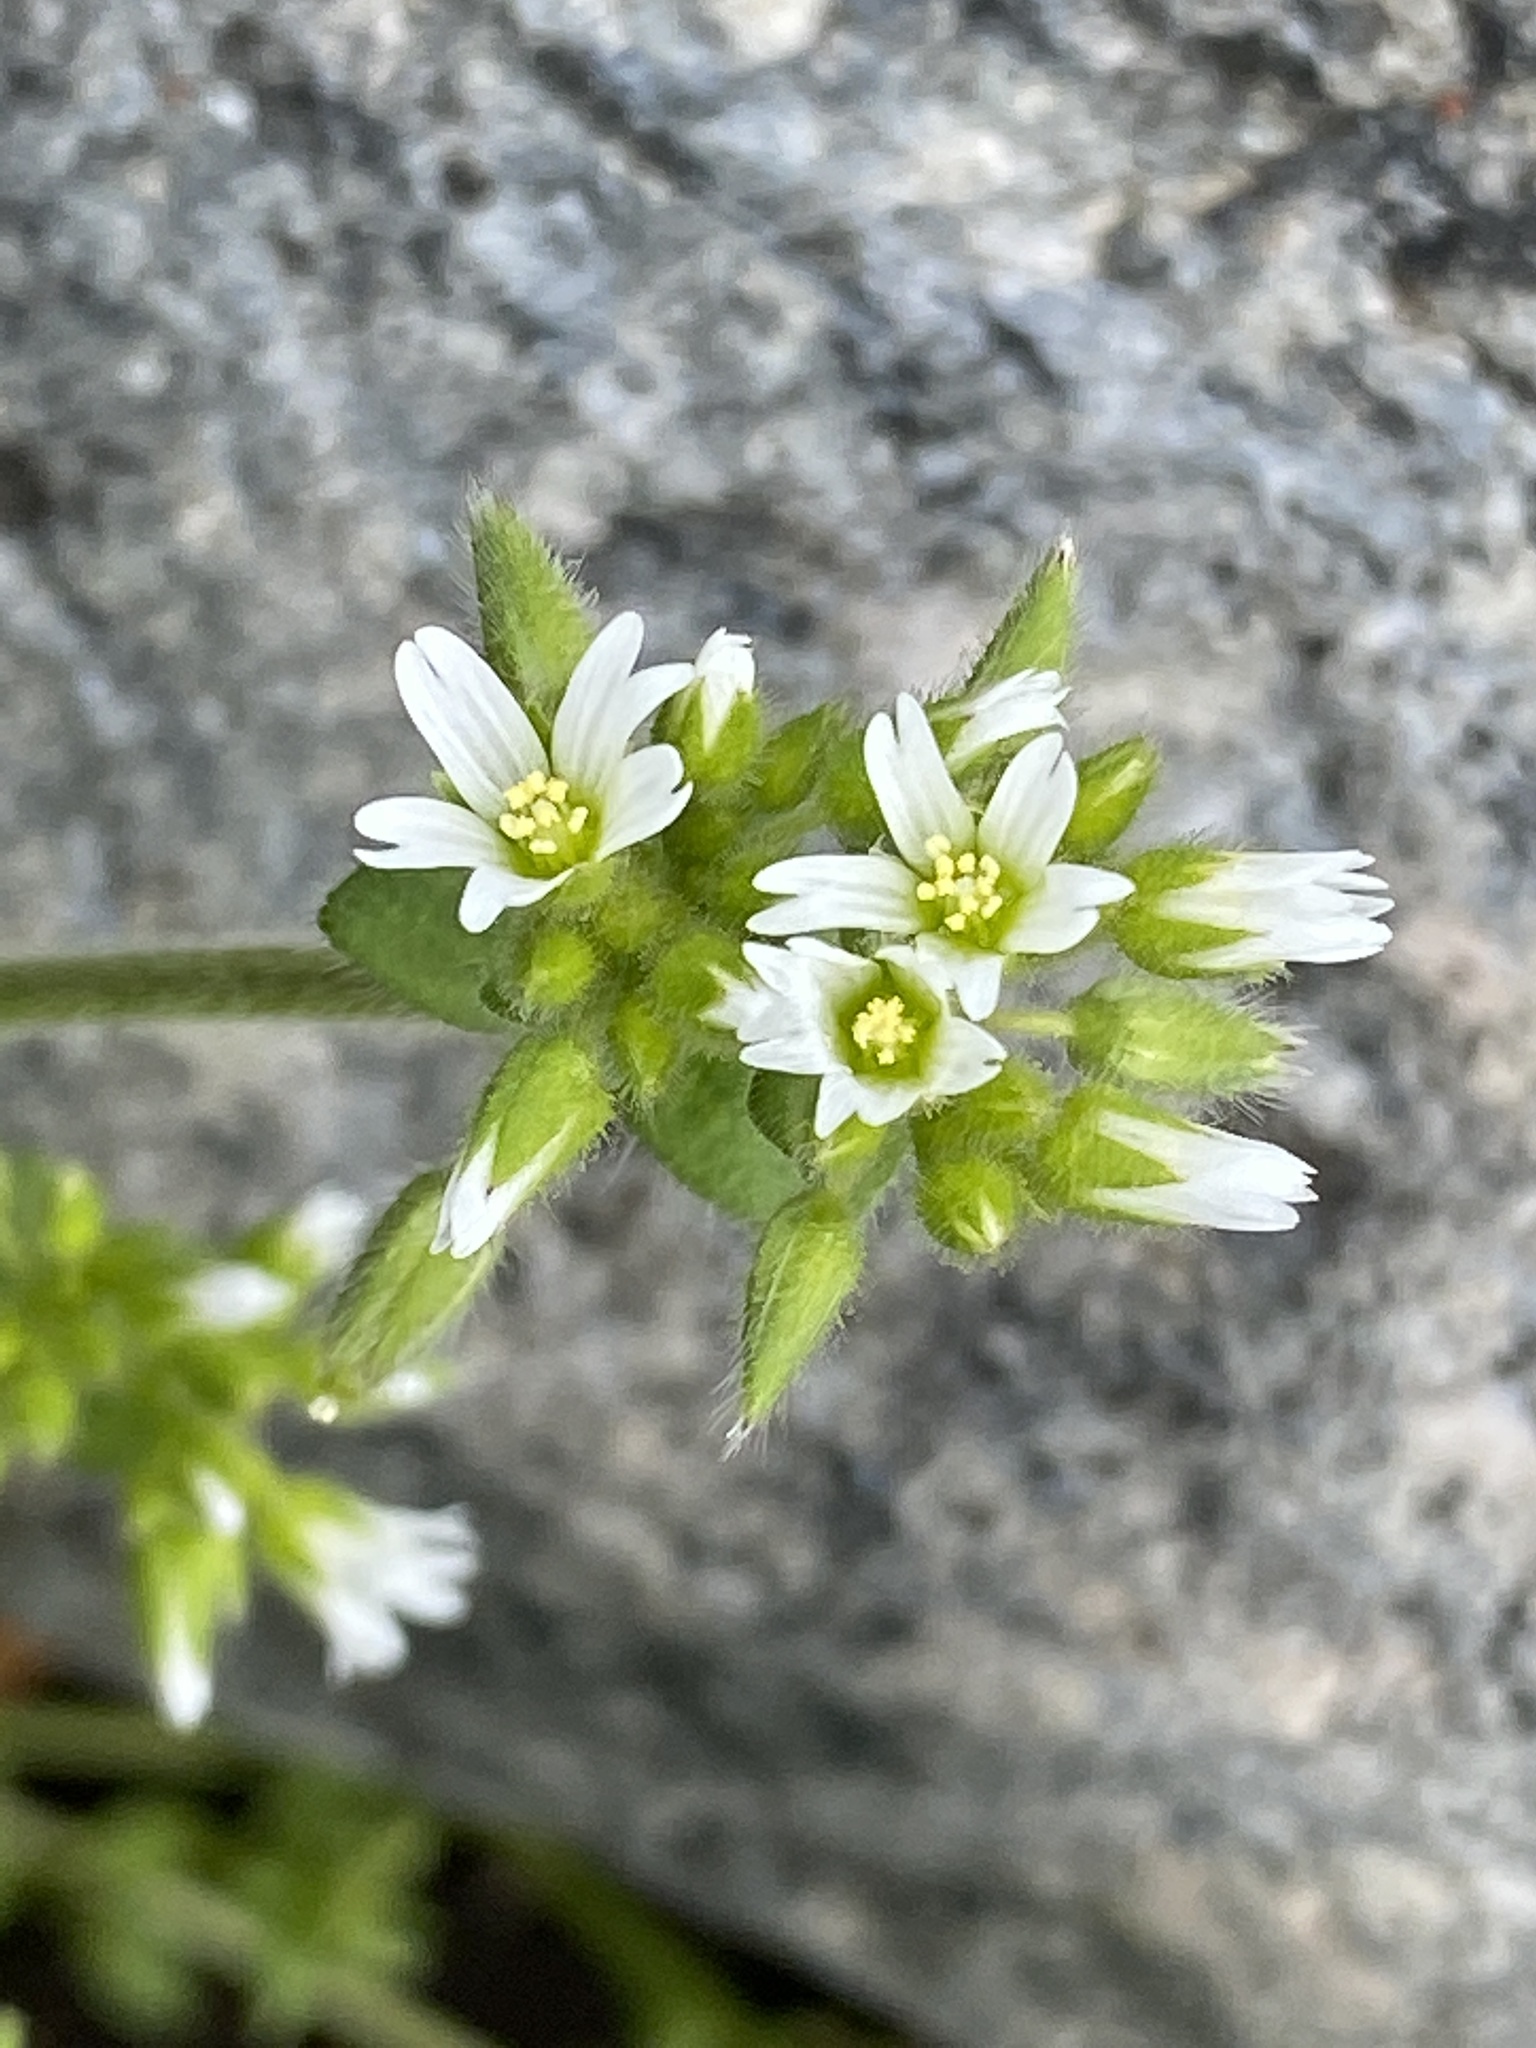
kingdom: Plantae
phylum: Tracheophyta
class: Magnoliopsida
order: Caryophyllales
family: Caryophyllaceae
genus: Cerastium
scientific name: Cerastium glomeratum
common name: Sticky chickweed
